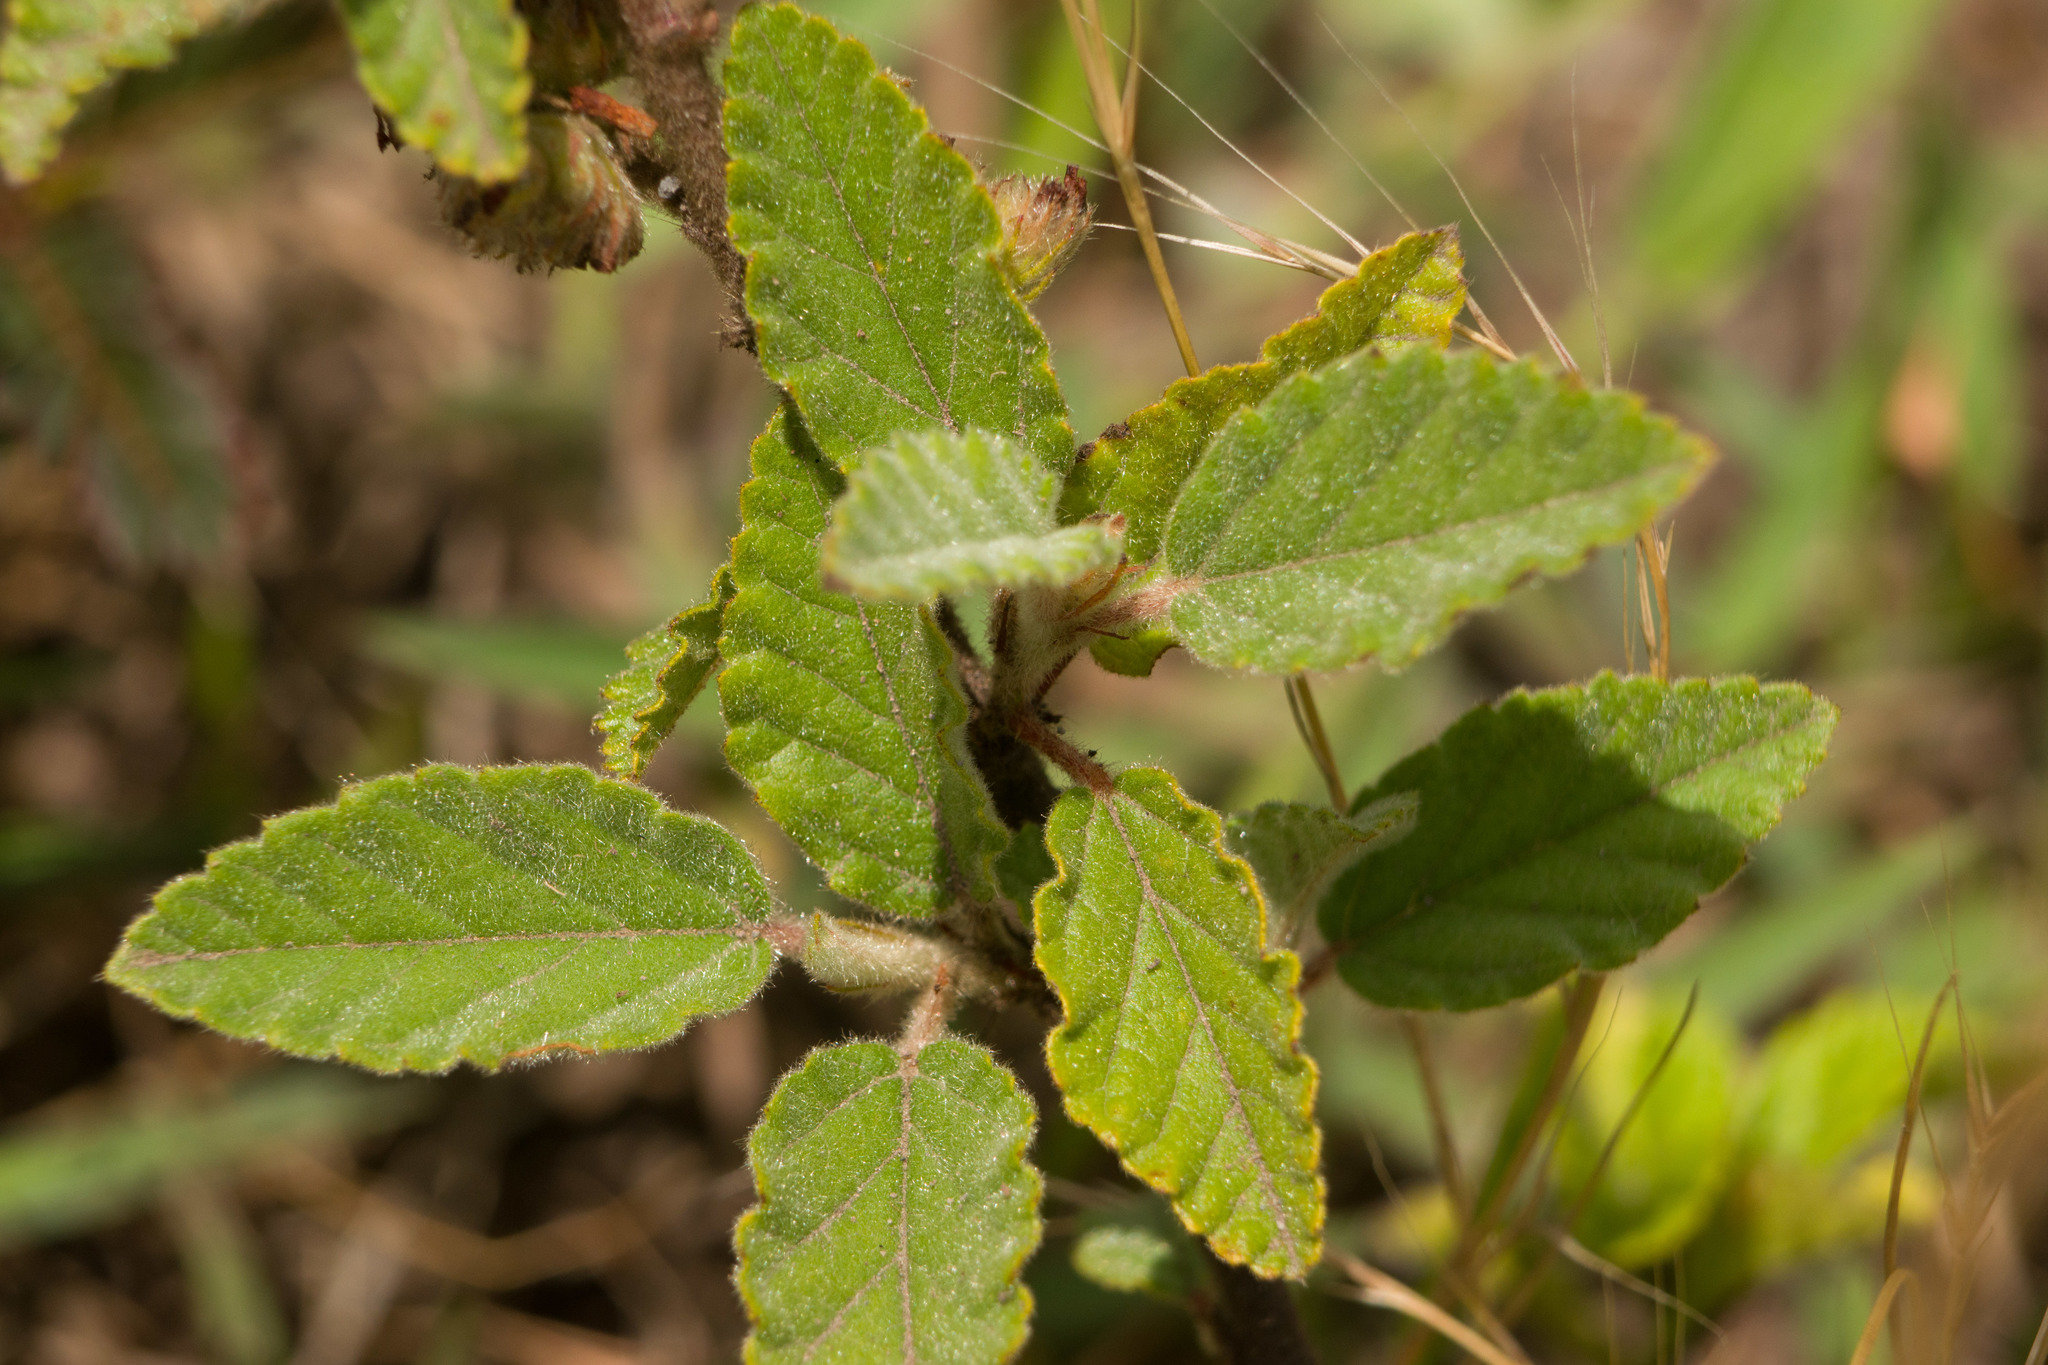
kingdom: Plantae
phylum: Tracheophyta
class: Magnoliopsida
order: Malvales
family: Malvaceae
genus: Waltheria
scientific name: Waltheria indica
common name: Leather-coat
